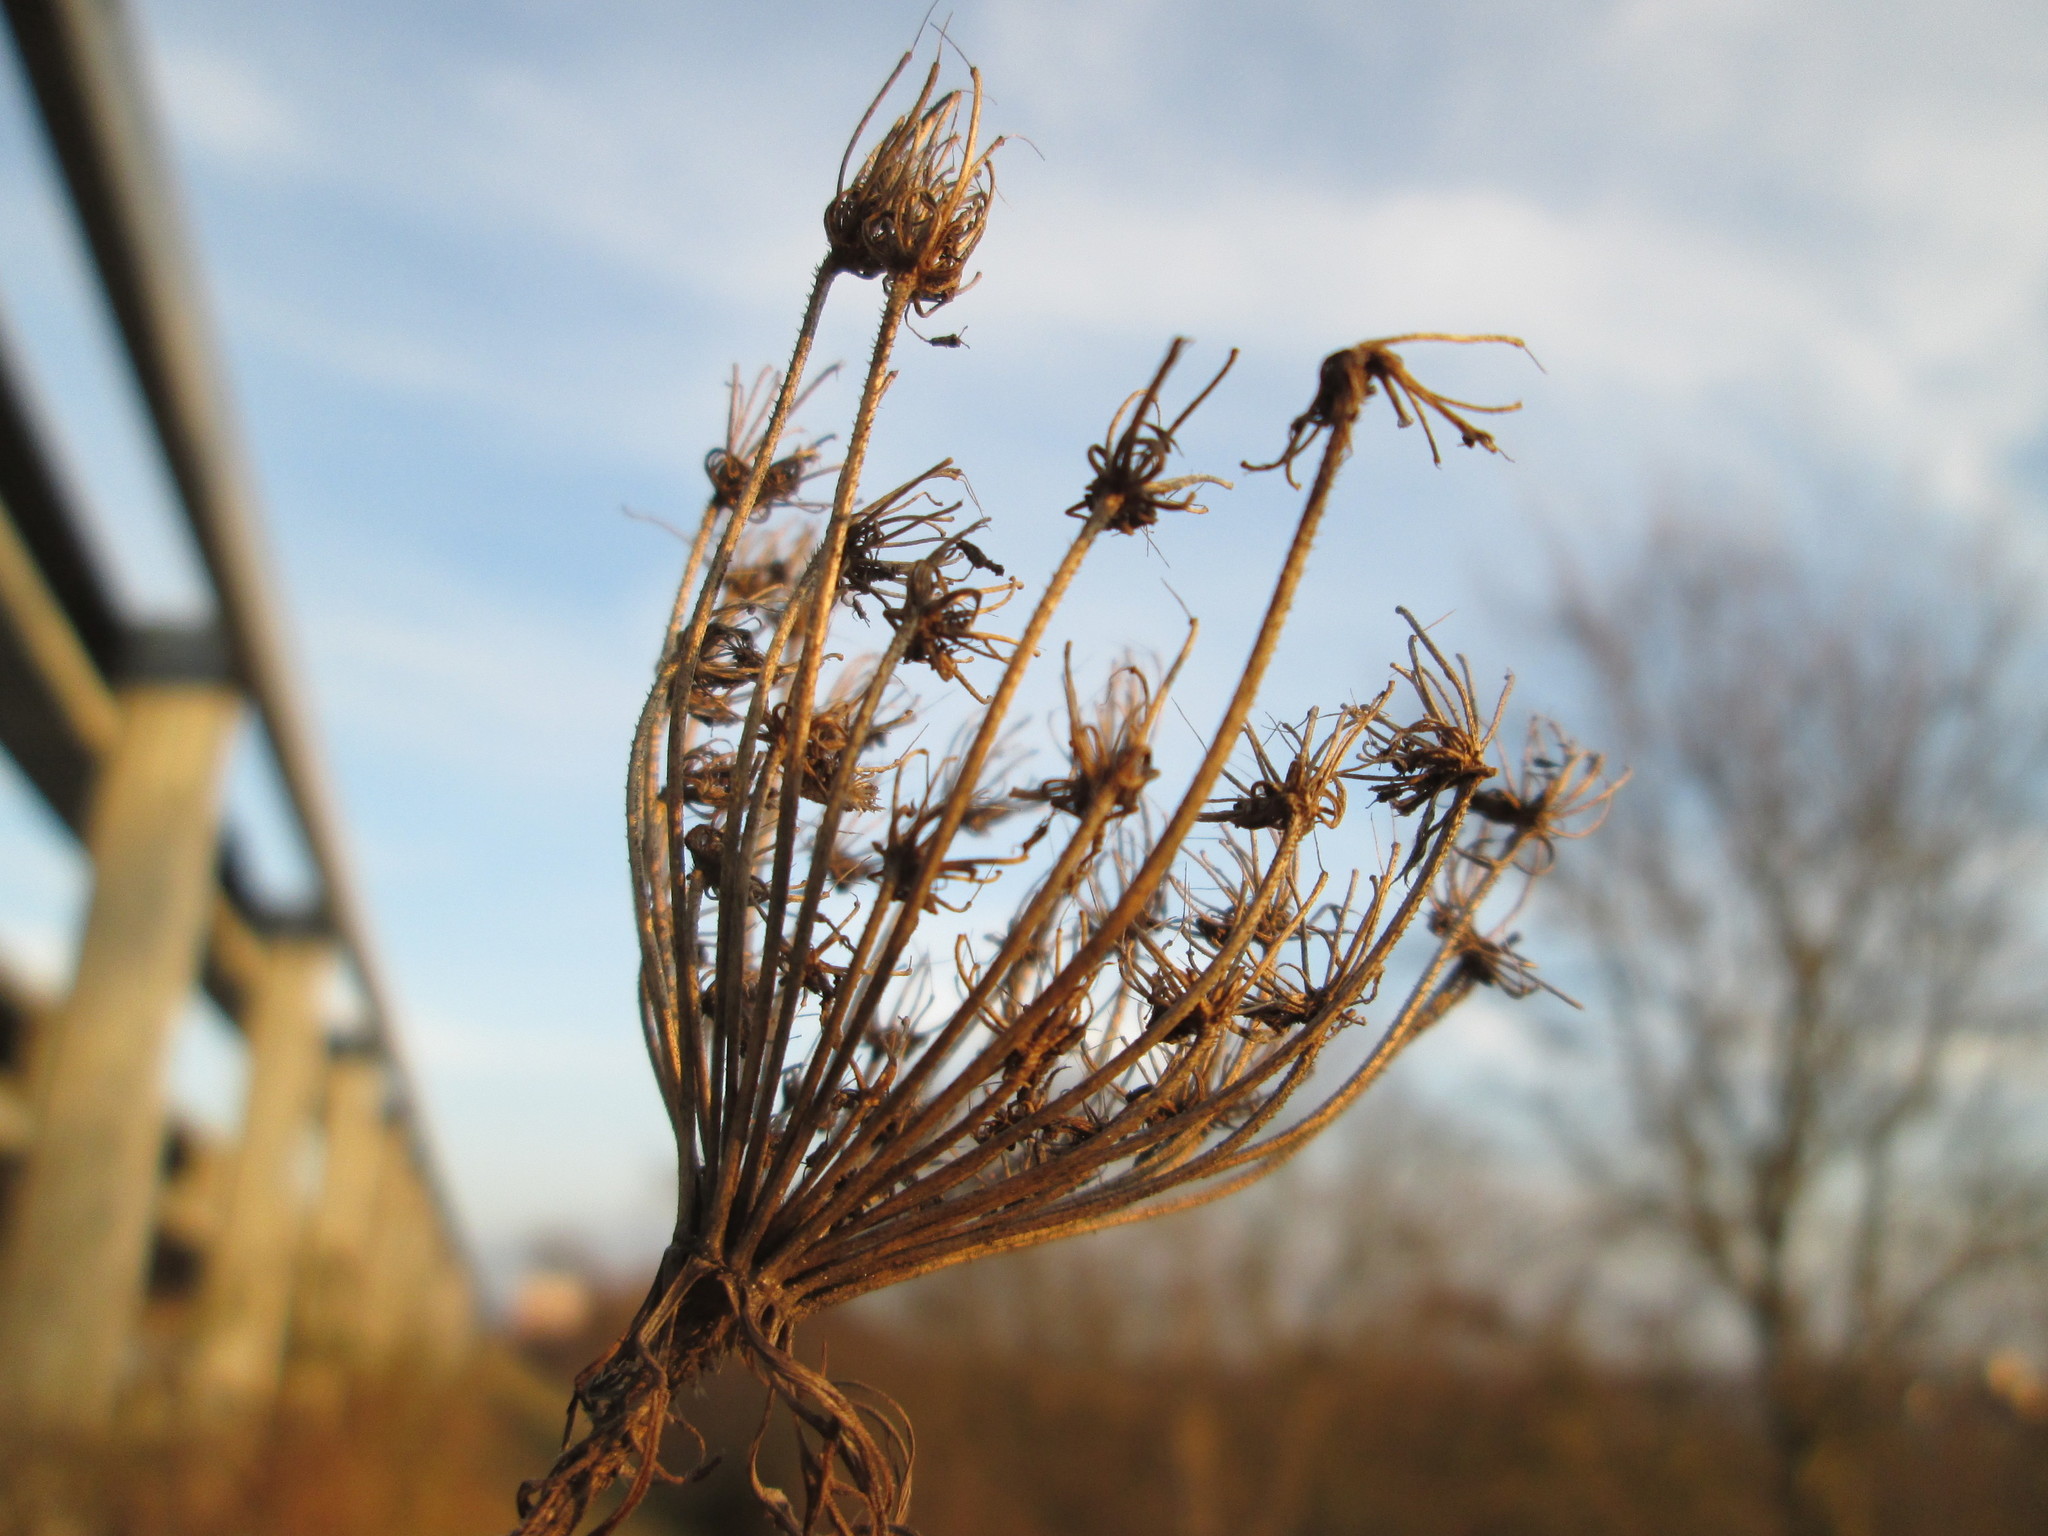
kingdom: Plantae
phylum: Tracheophyta
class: Magnoliopsida
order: Apiales
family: Apiaceae
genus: Daucus
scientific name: Daucus carota
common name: Wild carrot
